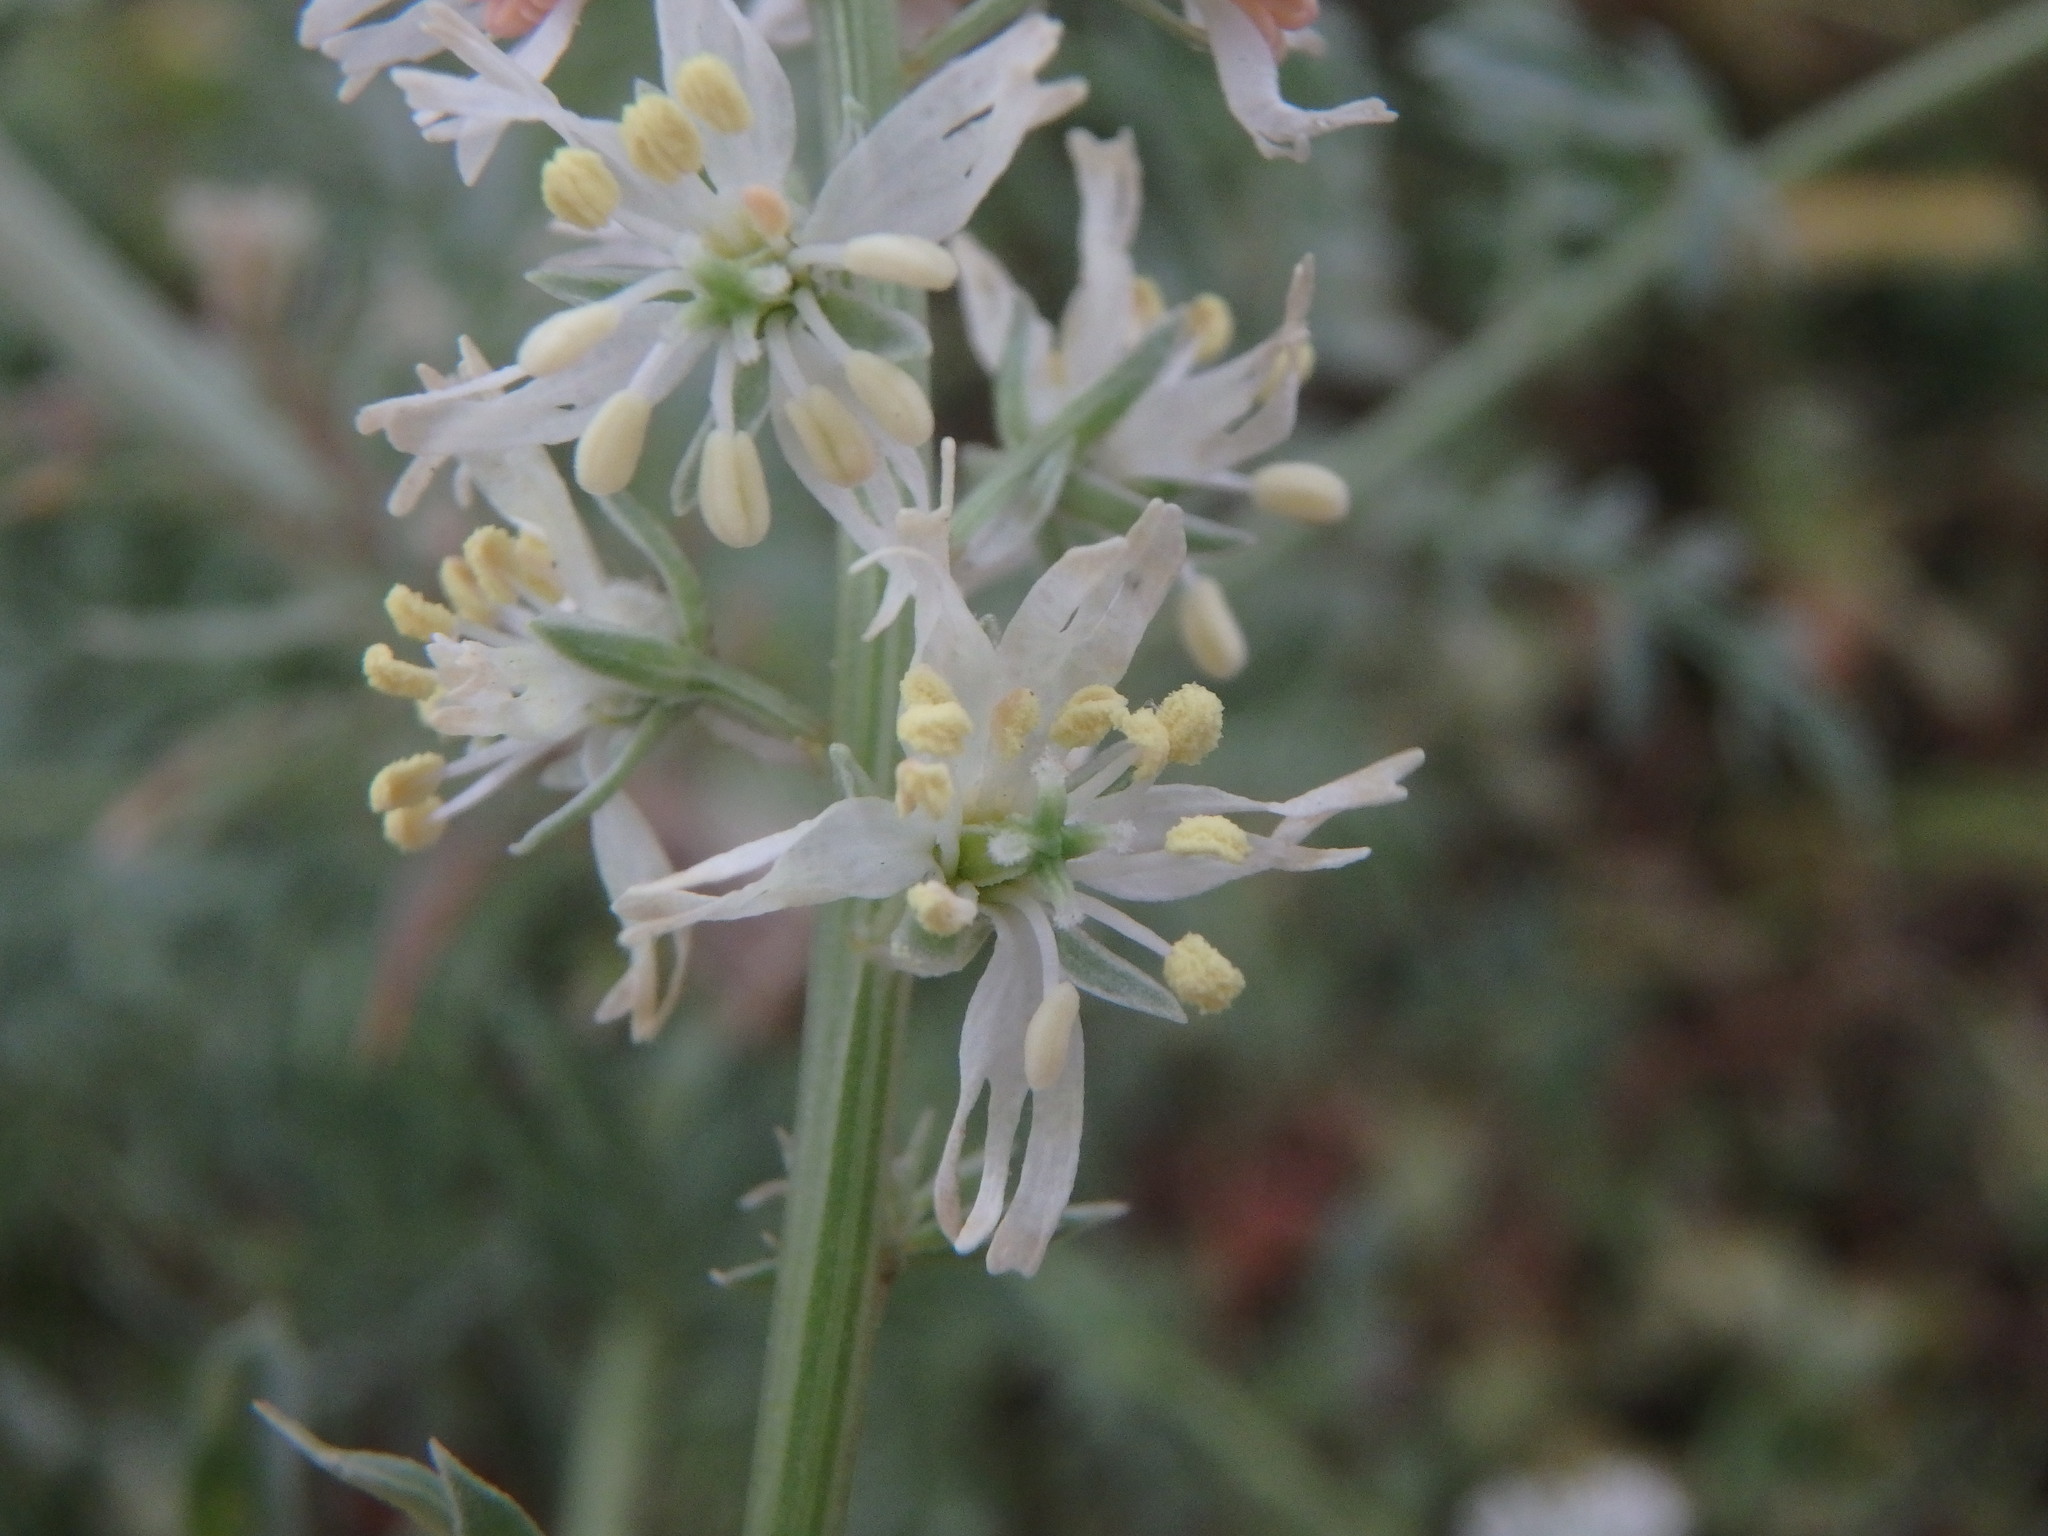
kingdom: Plantae
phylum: Tracheophyta
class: Magnoliopsida
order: Brassicales
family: Resedaceae
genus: Reseda
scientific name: Reseda alba
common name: White mignonette
